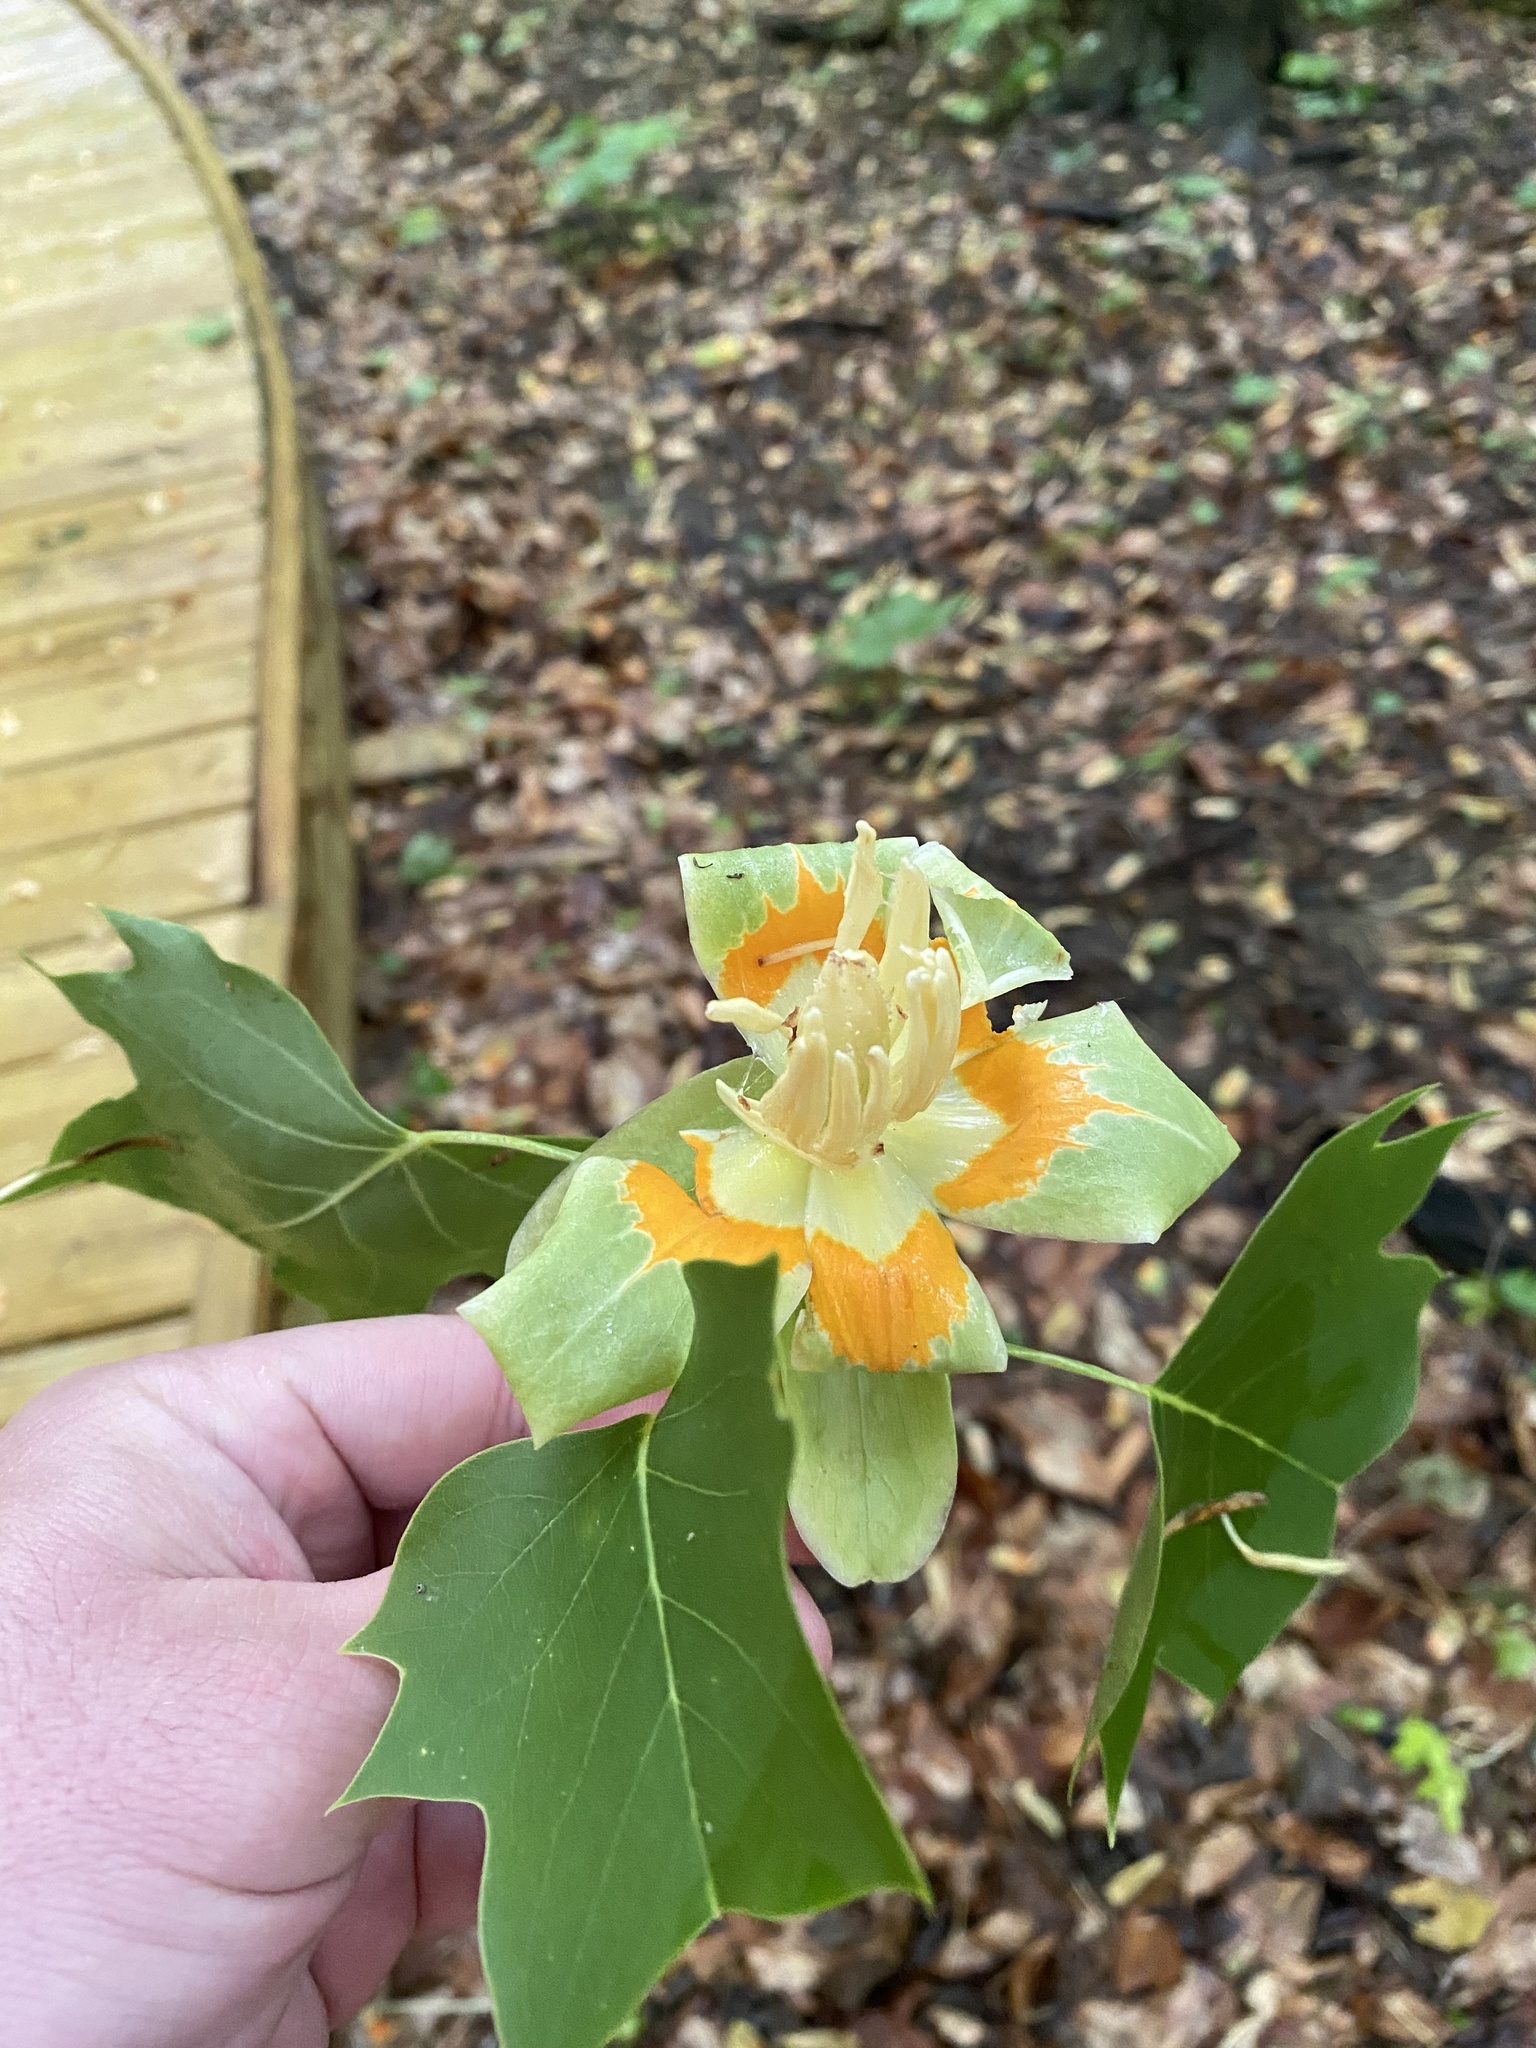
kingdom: Plantae
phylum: Tracheophyta
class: Magnoliopsida
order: Magnoliales
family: Magnoliaceae
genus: Liriodendron
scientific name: Liriodendron tulipifera
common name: Tulip tree
